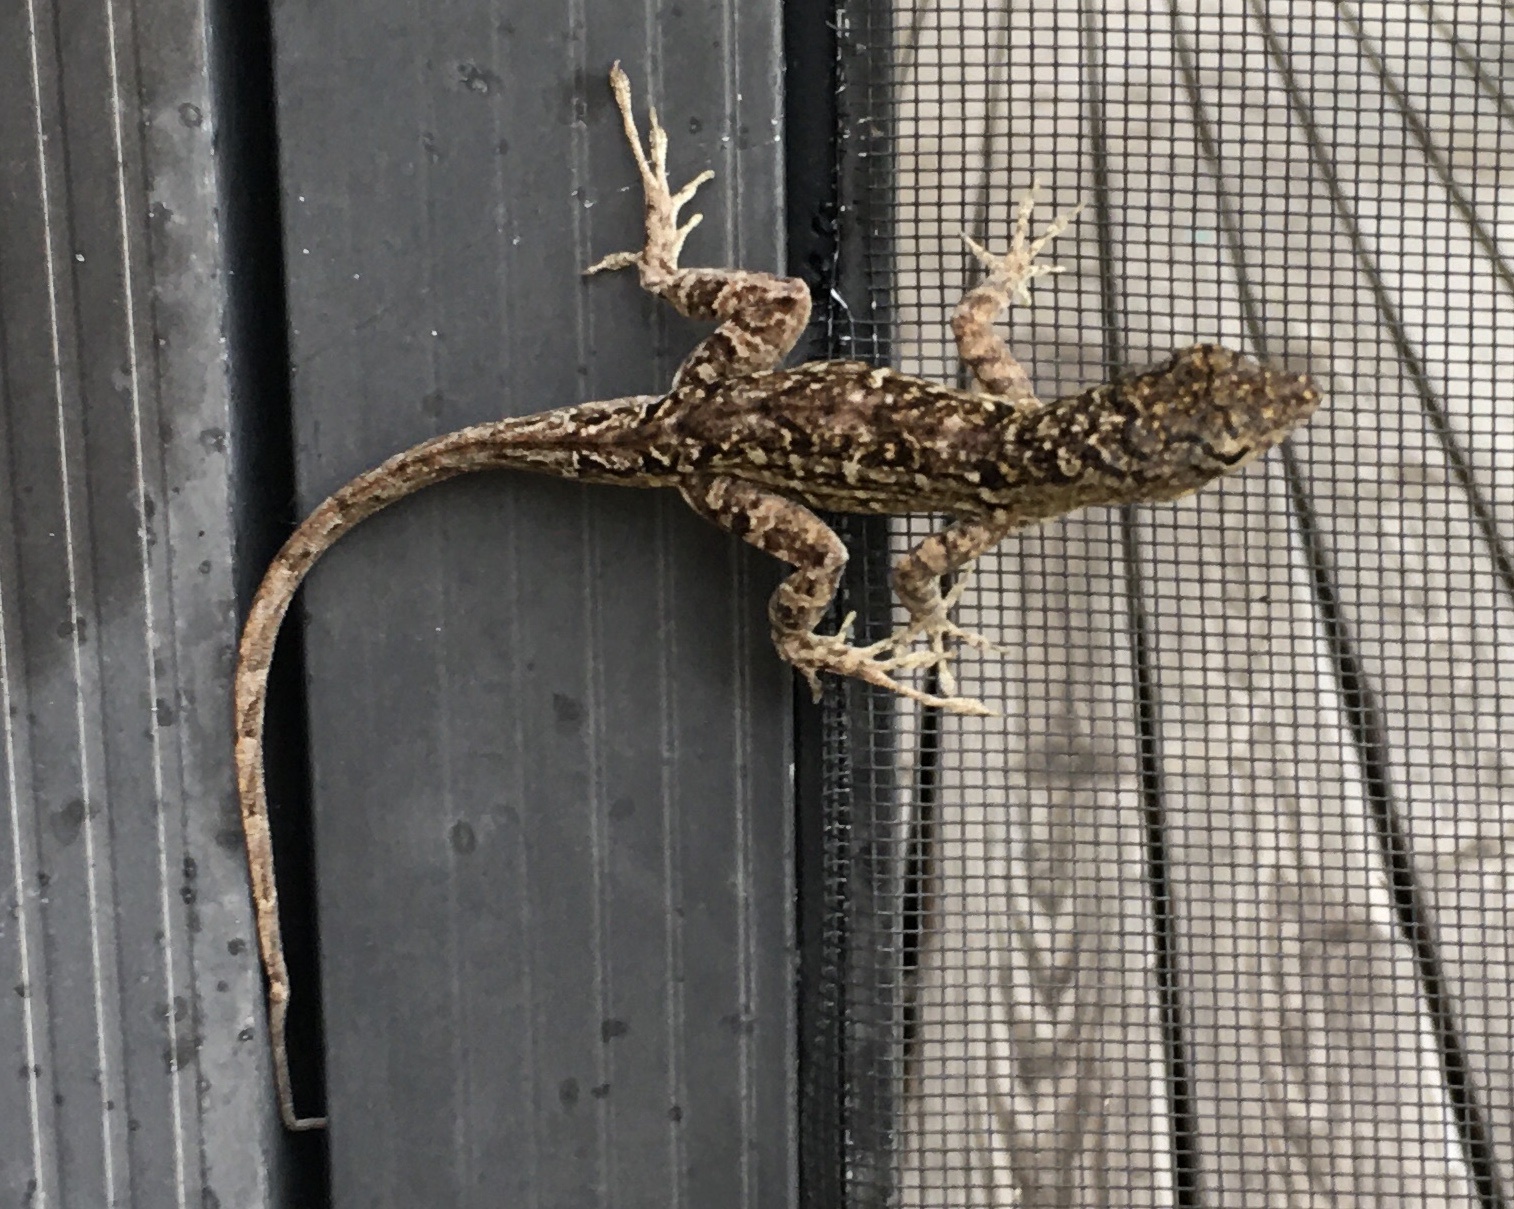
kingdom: Animalia
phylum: Chordata
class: Squamata
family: Dactyloidae
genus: Anolis
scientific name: Anolis sagrei
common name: Brown anole
